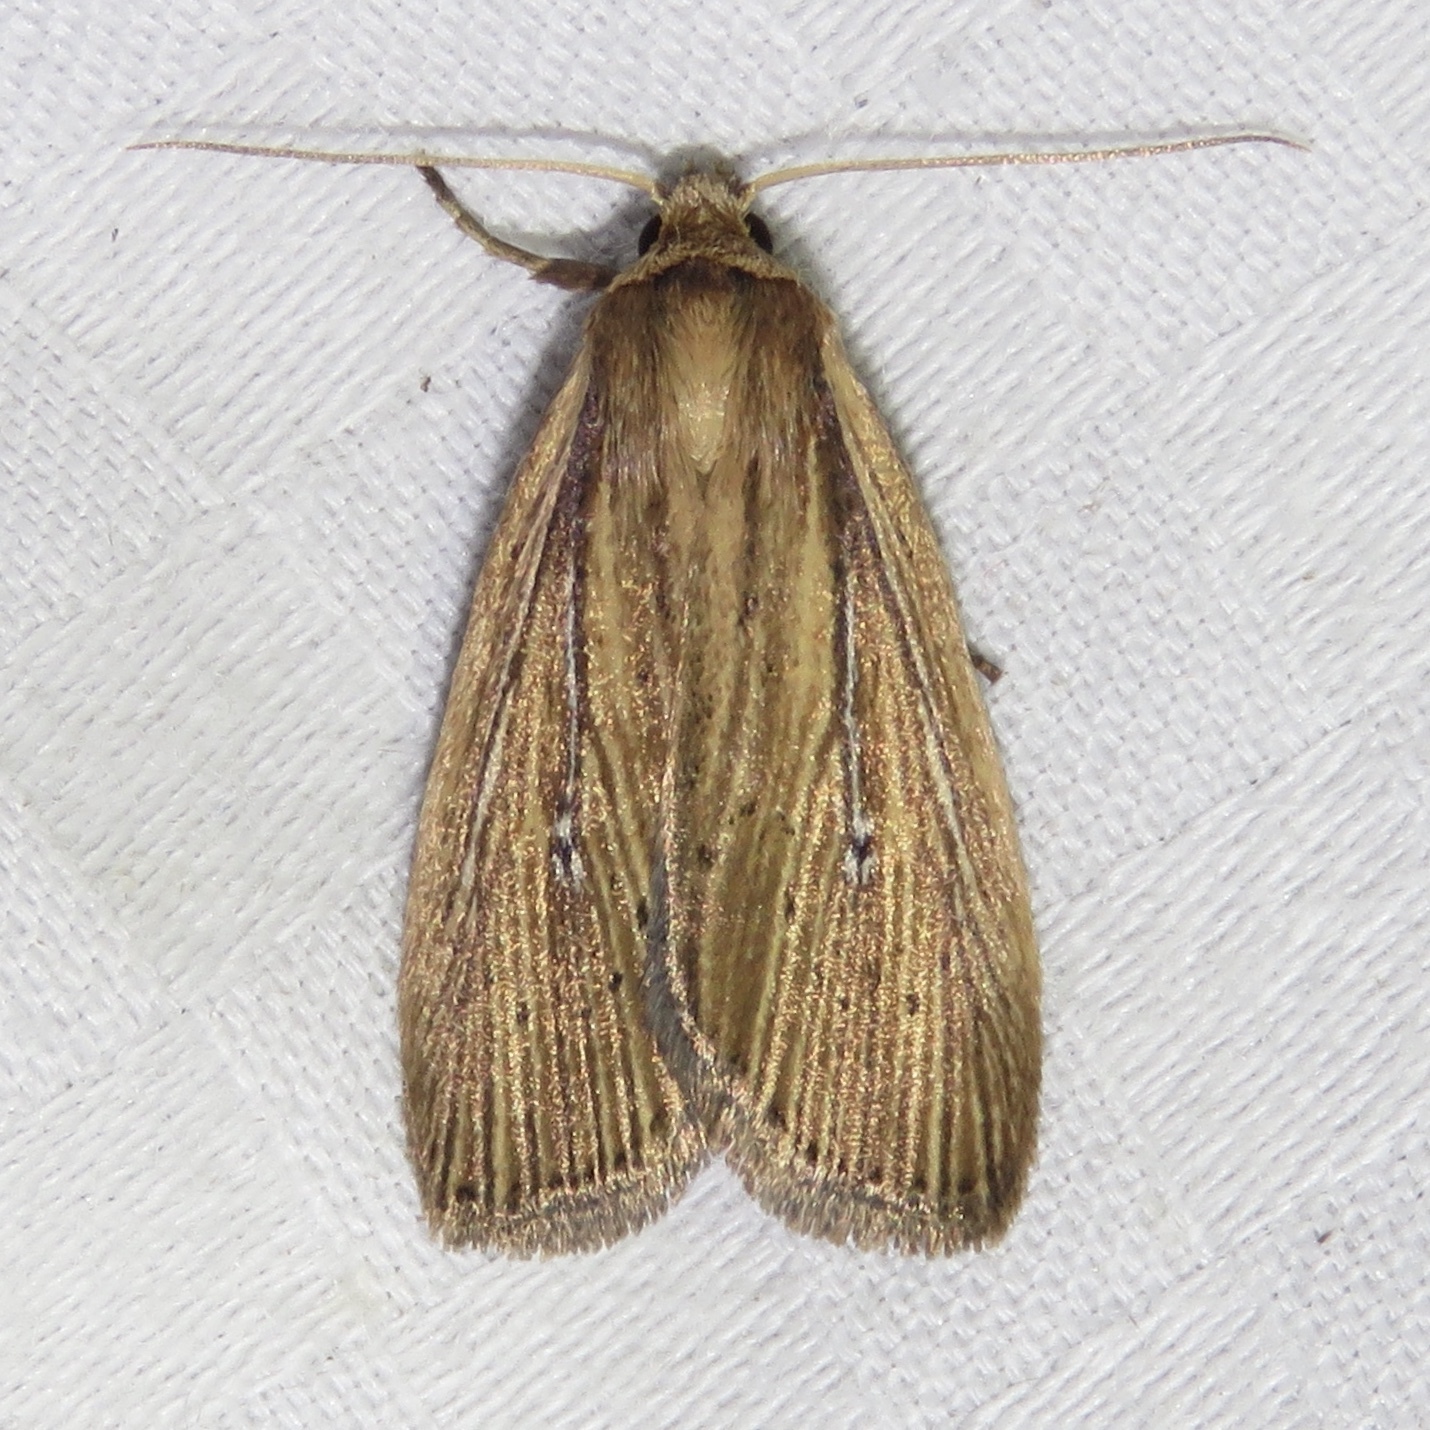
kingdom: Animalia
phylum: Arthropoda
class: Insecta
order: Lepidoptera
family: Noctuidae
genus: Photedes
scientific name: Photedes defecta
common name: Narrow-winged borer moth
